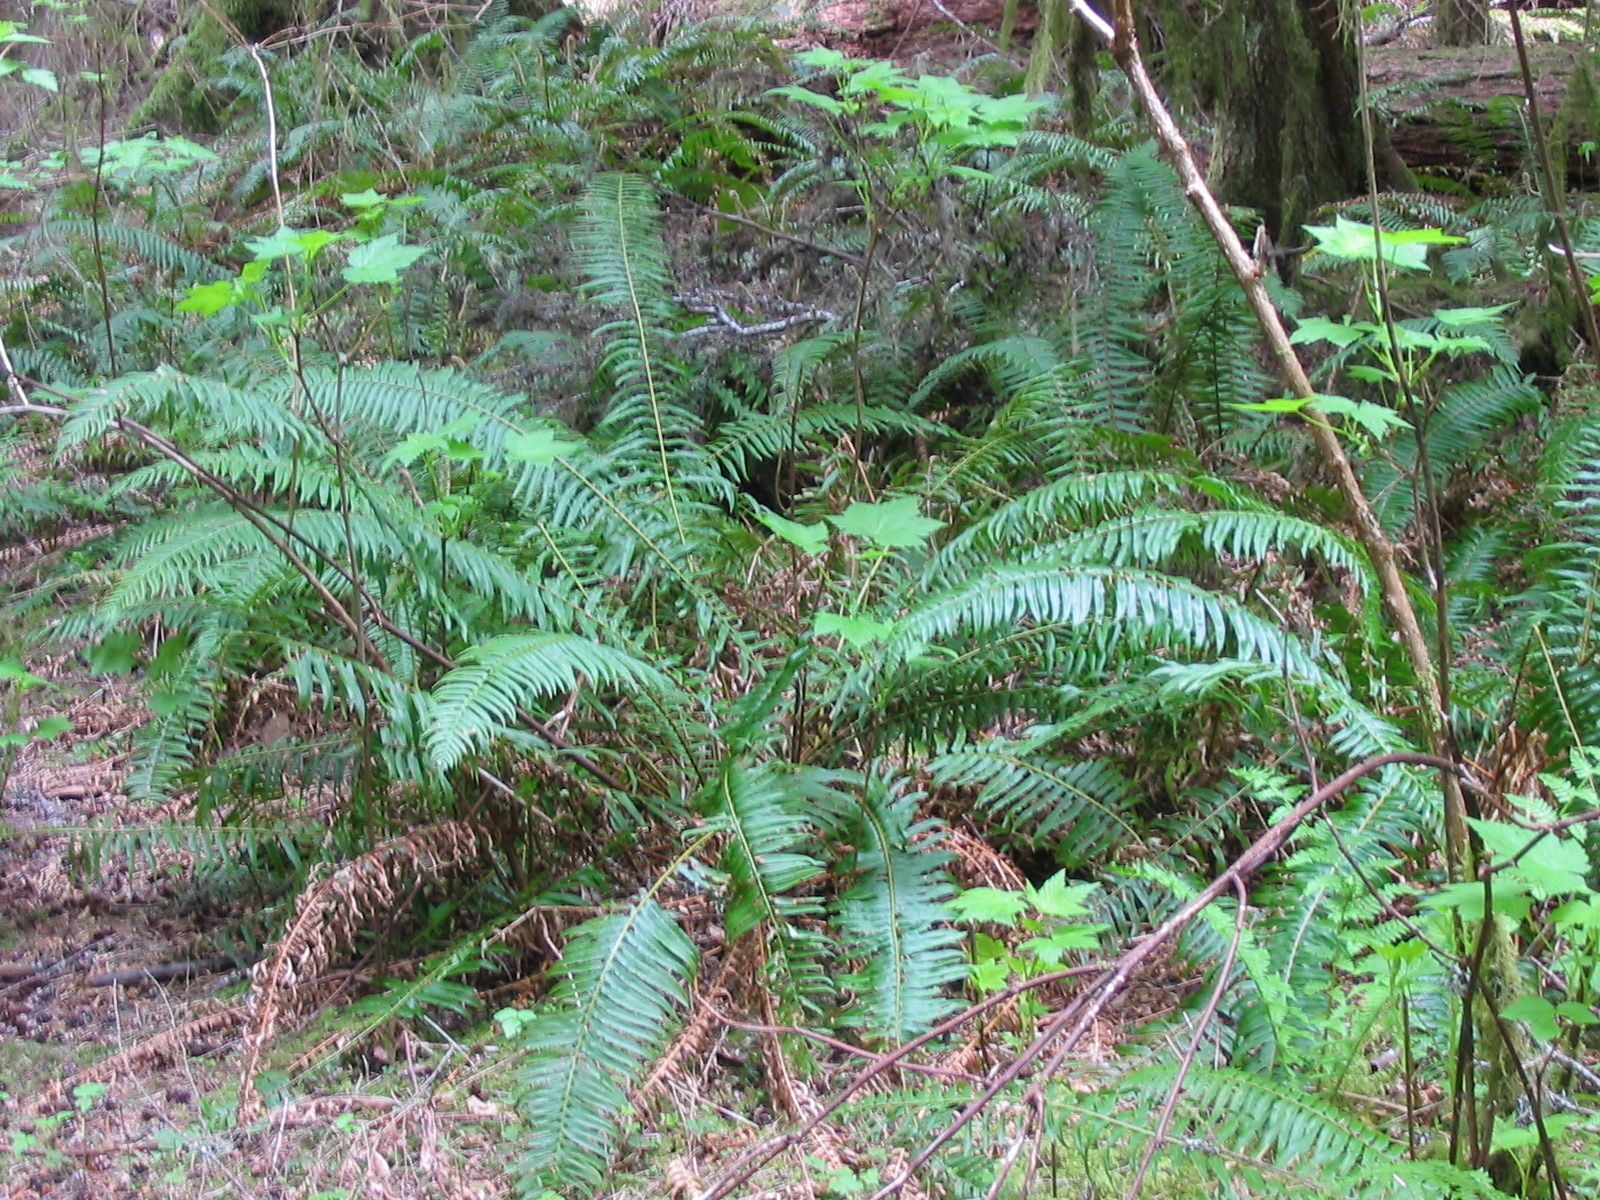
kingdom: Plantae
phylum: Tracheophyta
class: Polypodiopsida
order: Polypodiales
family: Dryopteridaceae
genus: Polystichum
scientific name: Polystichum munitum
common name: Western sword-fern
